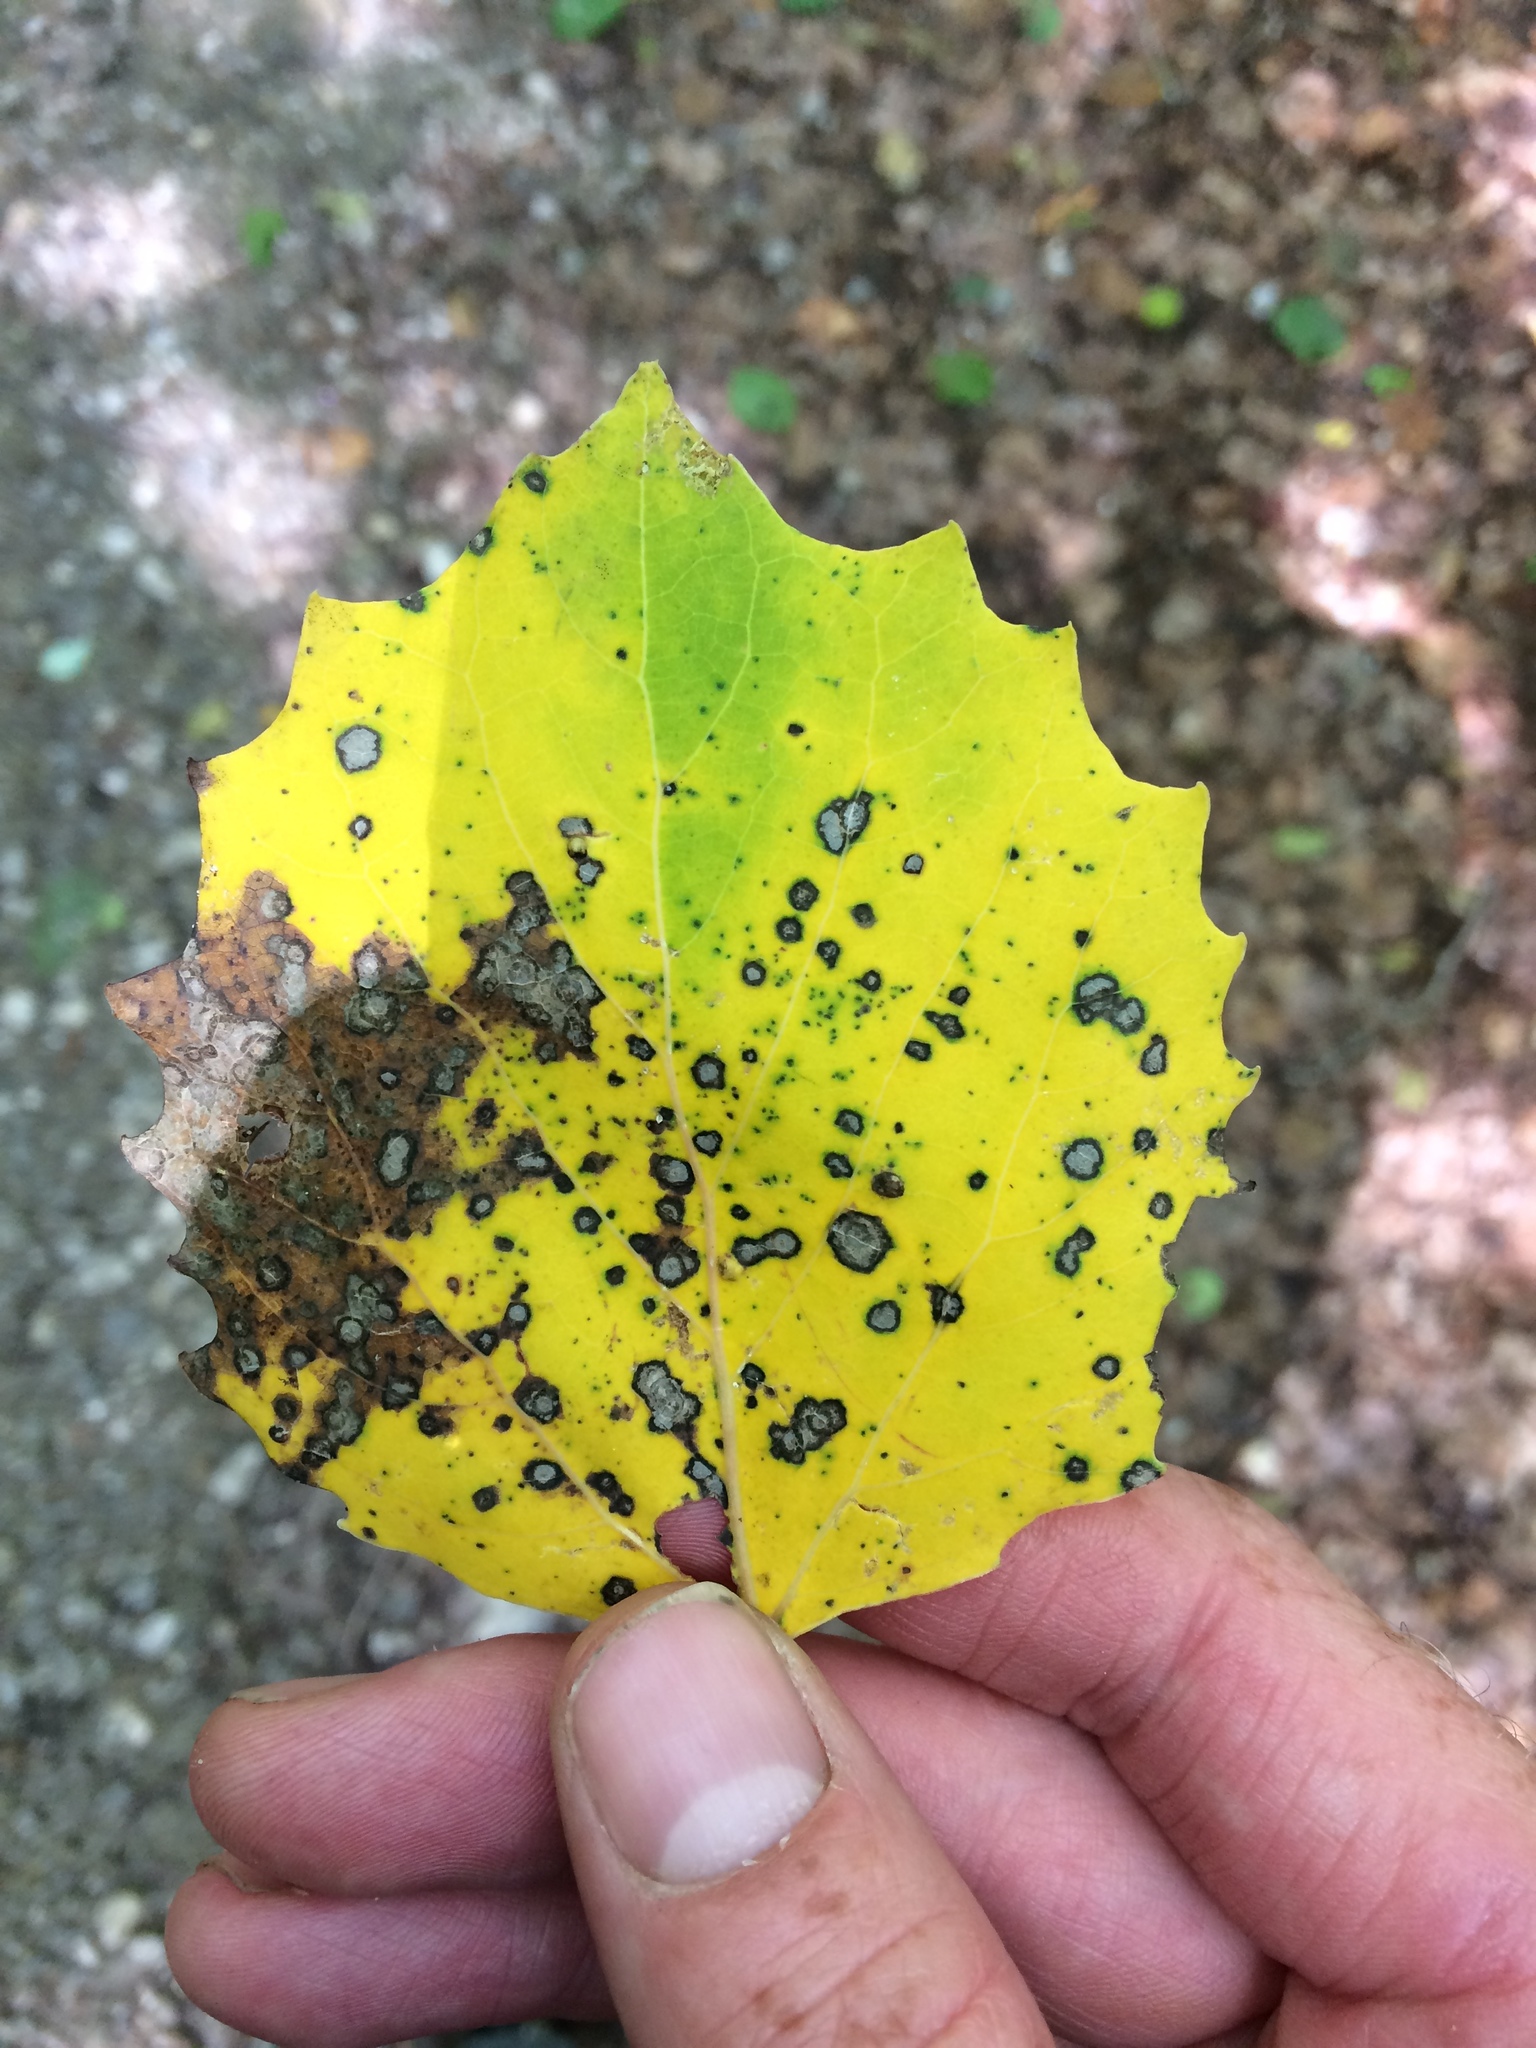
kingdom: Plantae
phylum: Tracheophyta
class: Magnoliopsida
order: Malpighiales
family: Salicaceae
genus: Populus
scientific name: Populus grandidentata
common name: Bigtooth aspen
